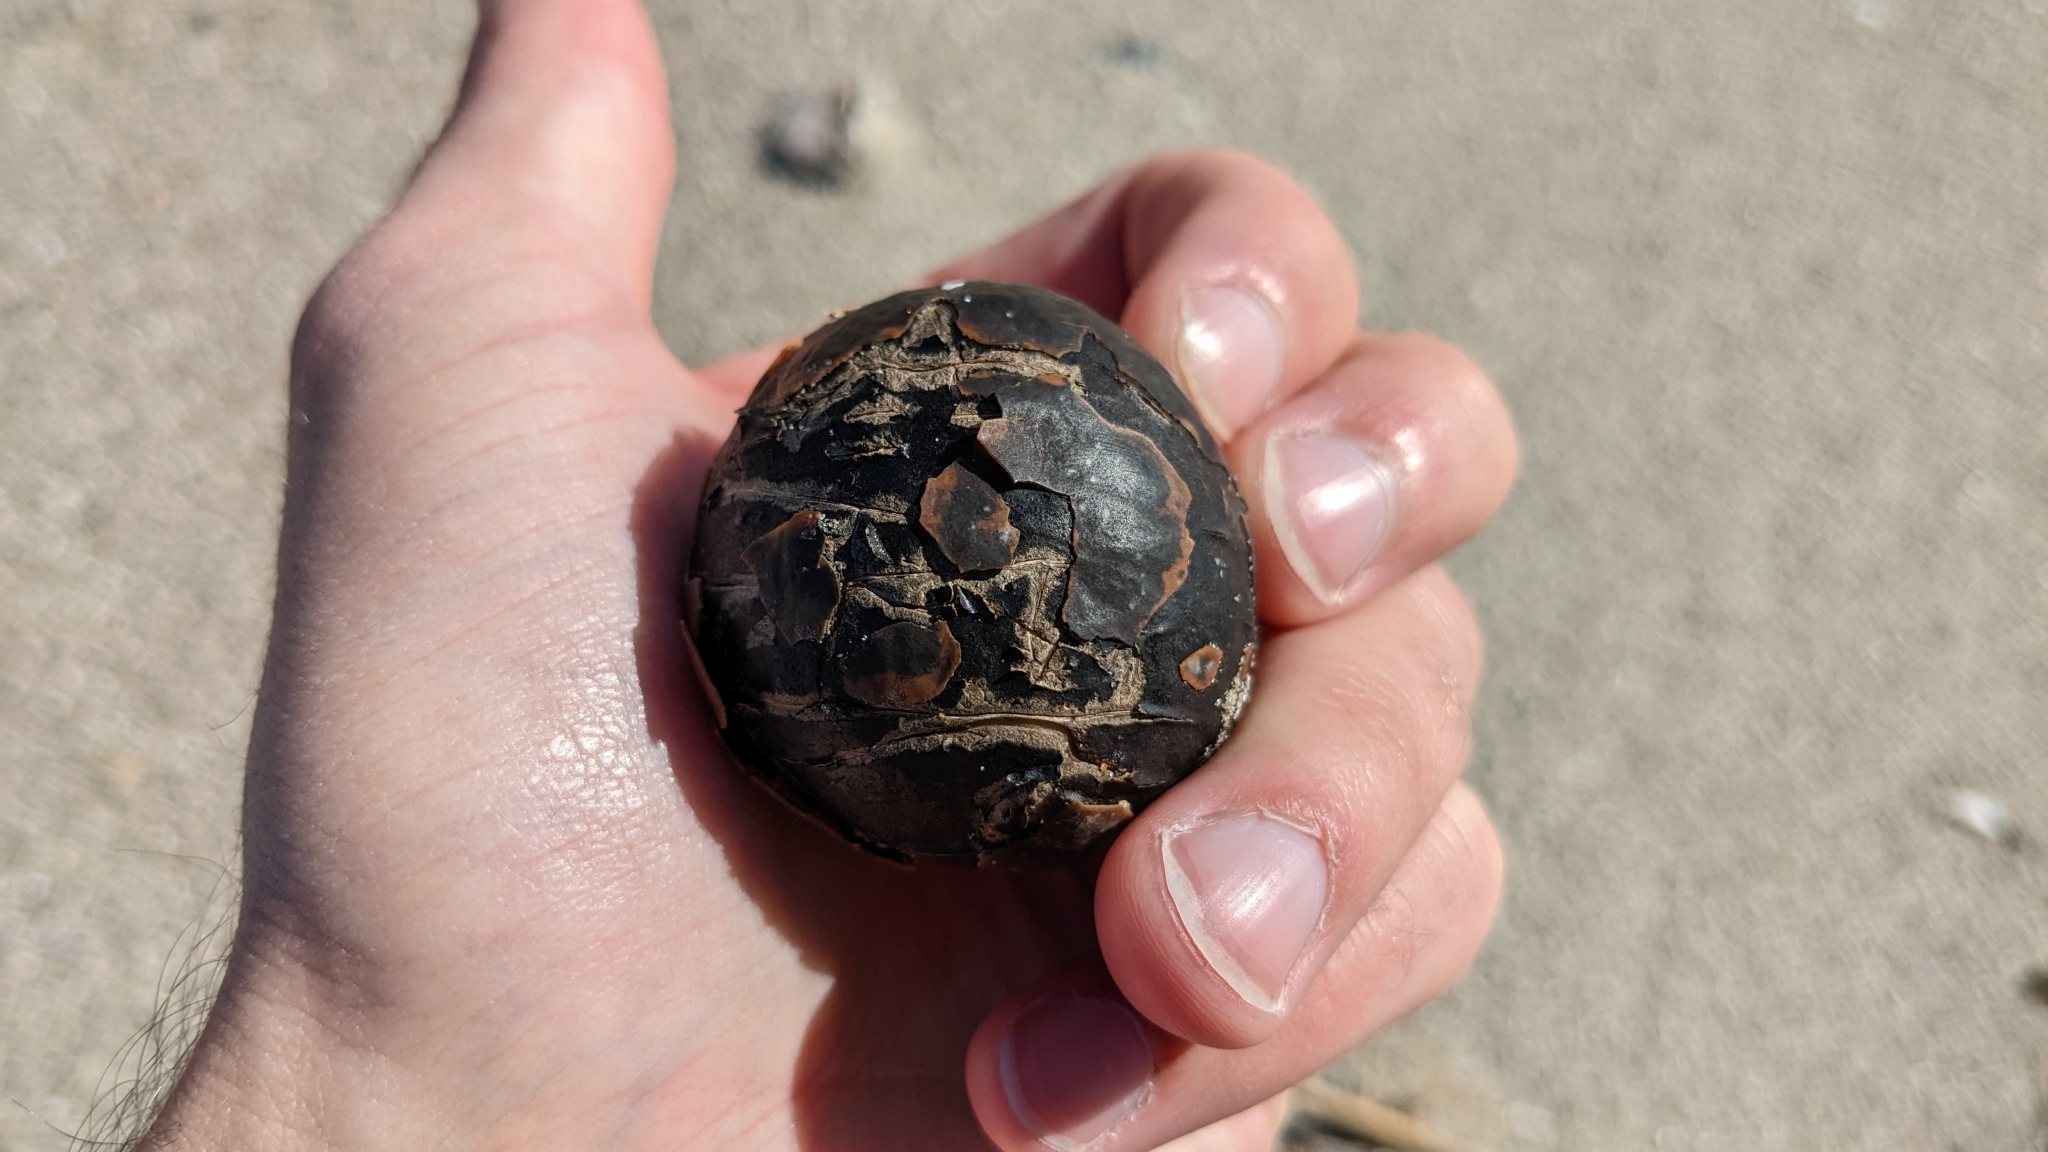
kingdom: Plantae
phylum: Tracheophyta
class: Liliopsida
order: Arecales
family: Arecaceae
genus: Manicaria
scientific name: Manicaria saccifera
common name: Sea coconut
